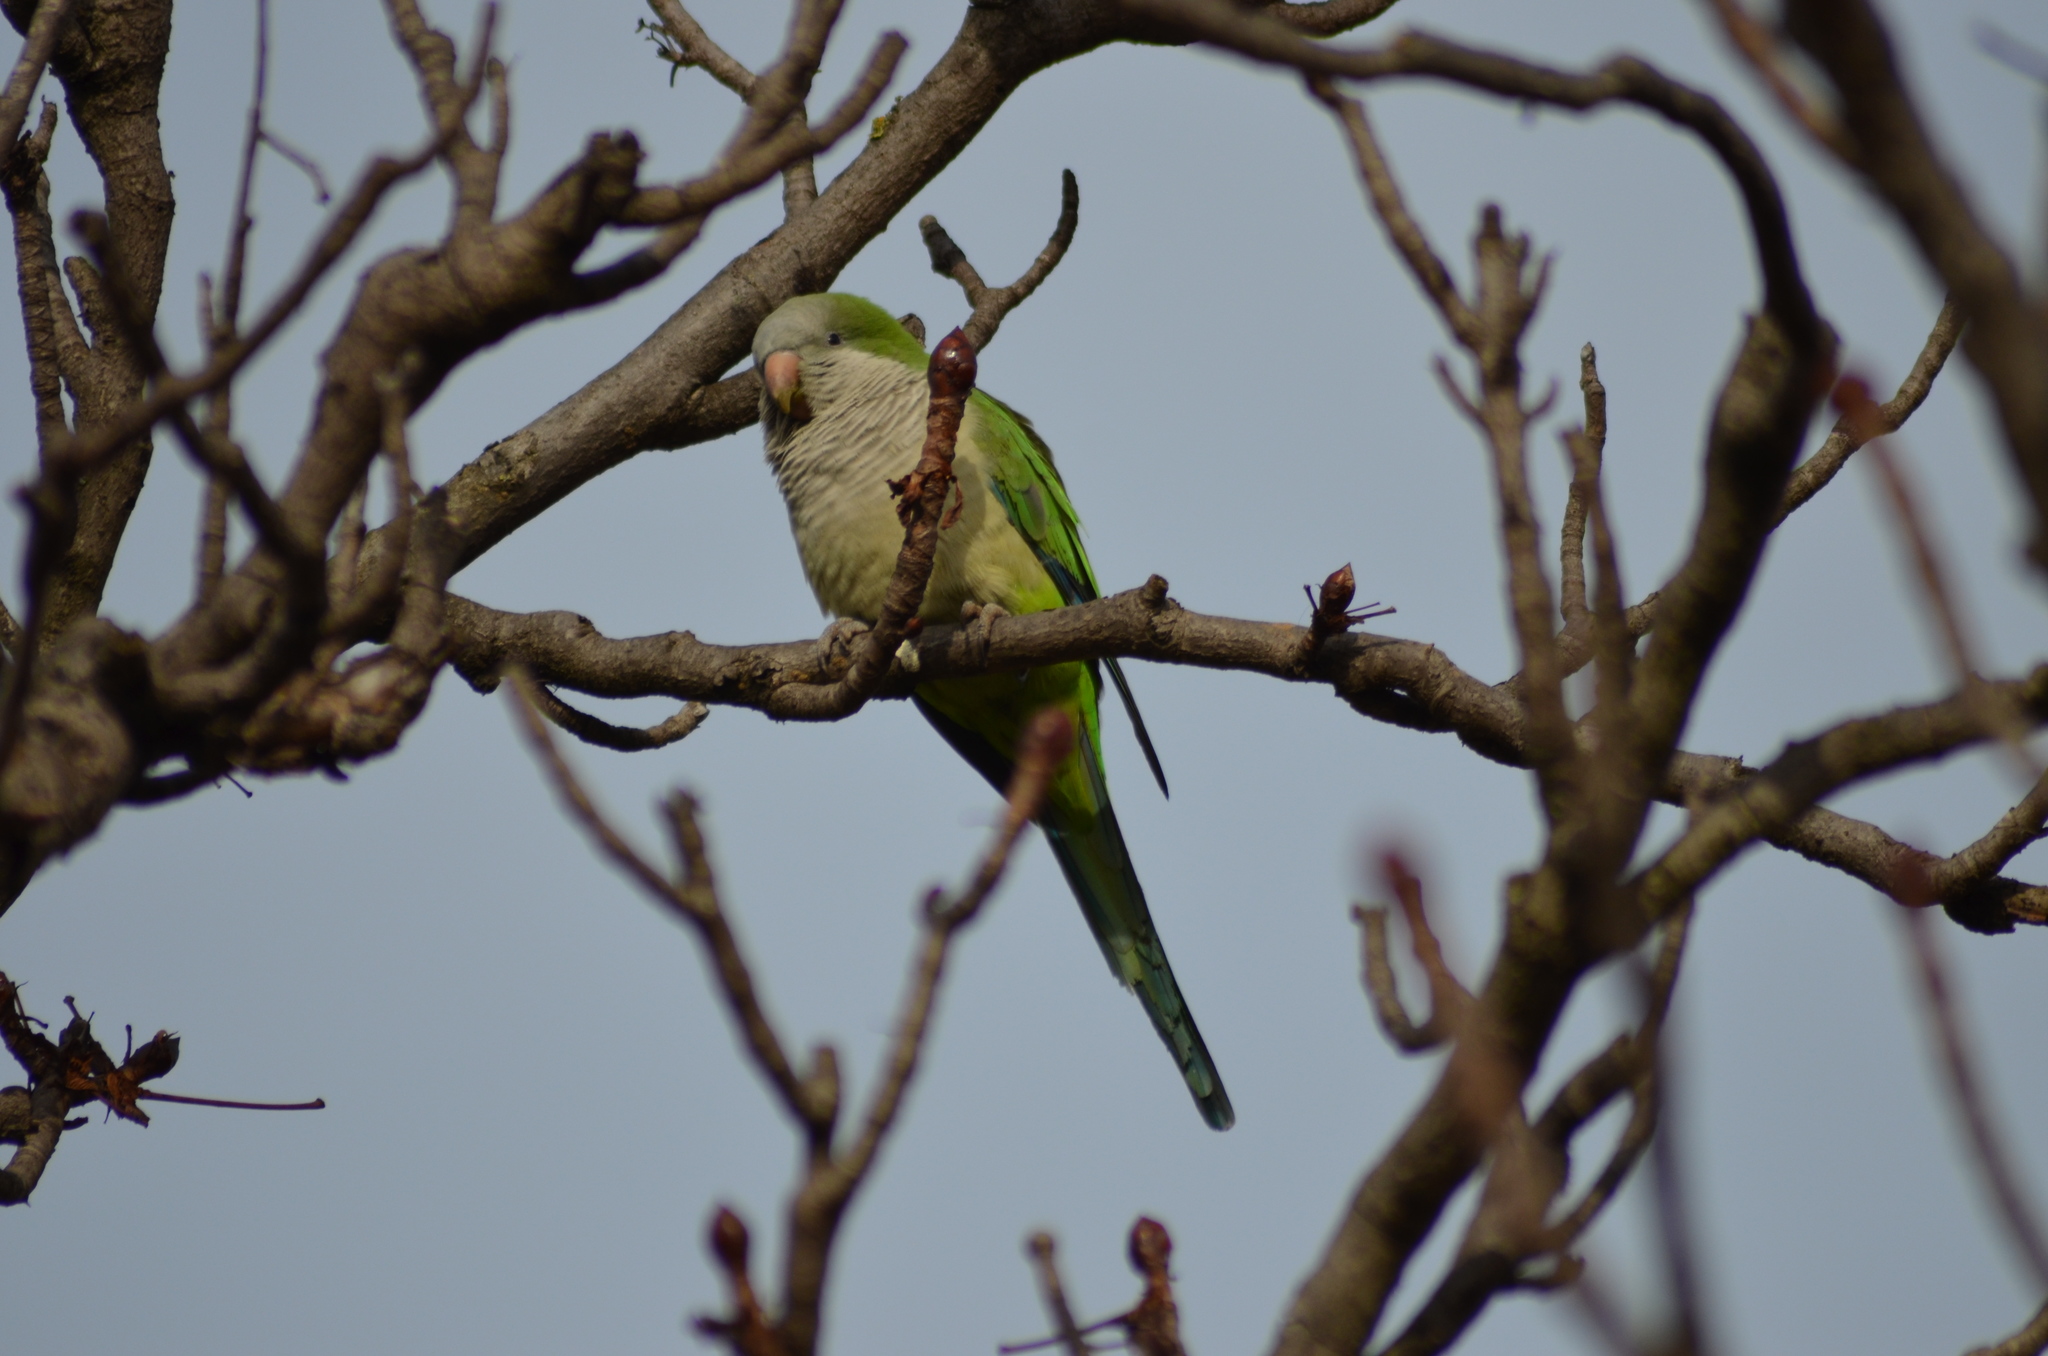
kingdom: Animalia
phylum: Chordata
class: Aves
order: Psittaciformes
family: Psittacidae
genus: Myiopsitta
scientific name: Myiopsitta monachus
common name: Monk parakeet
